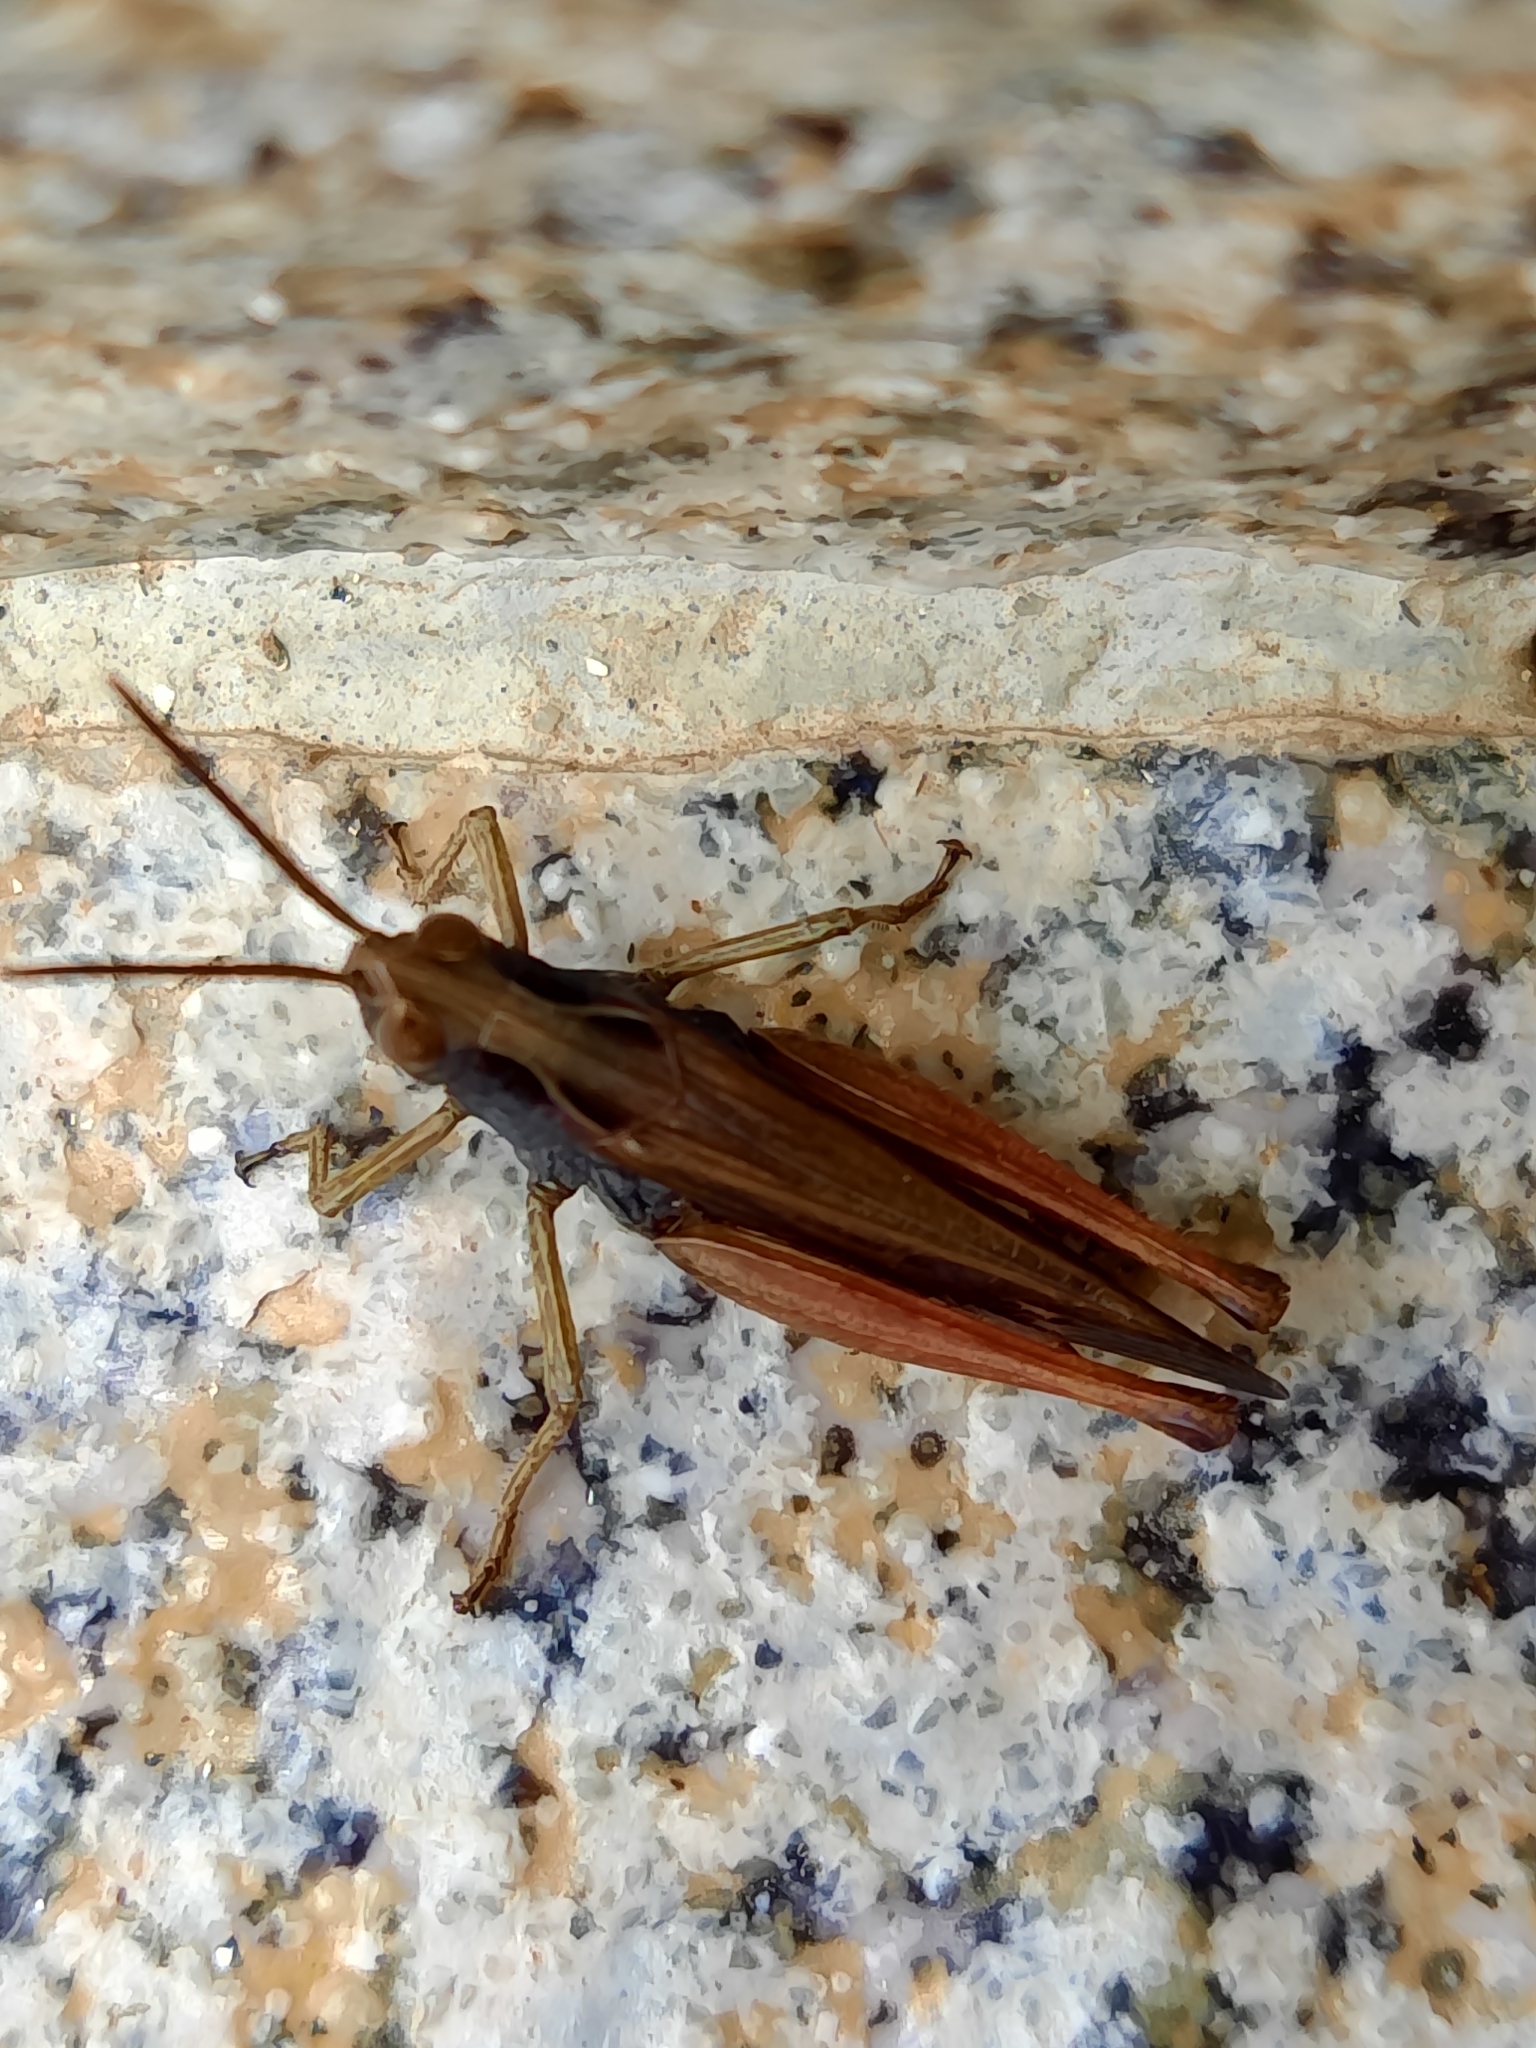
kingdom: Animalia
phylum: Arthropoda
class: Insecta
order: Orthoptera
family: Acrididae
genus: Omocestus
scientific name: Omocestus rufipes
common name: Woodland grasshopper
